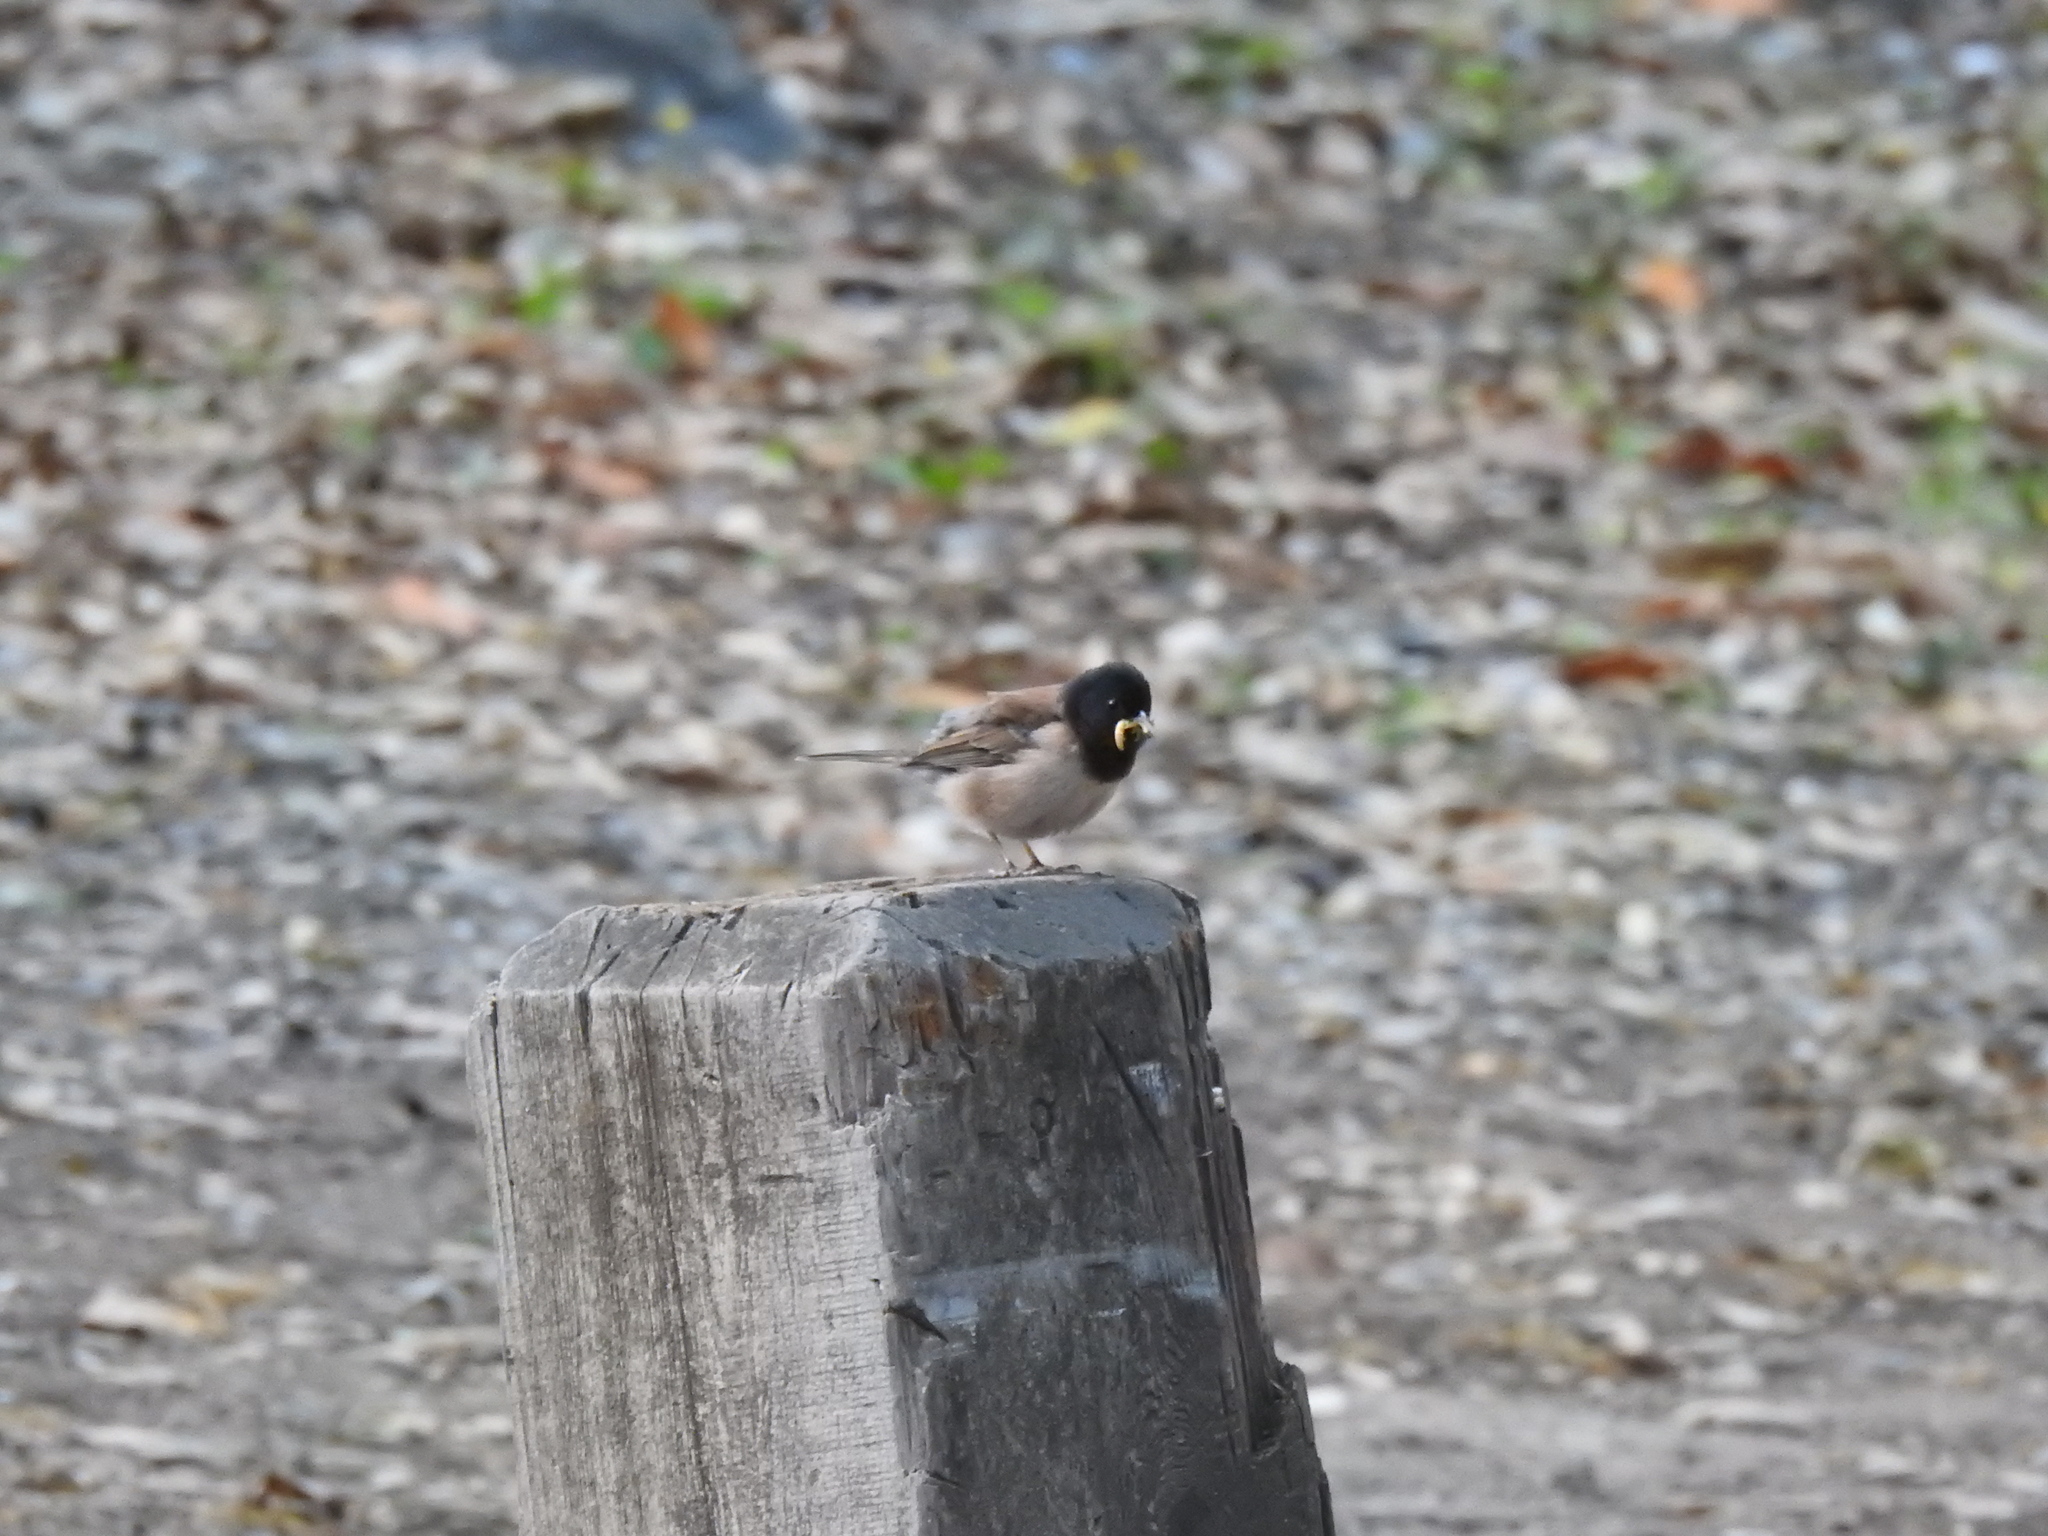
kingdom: Animalia
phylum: Chordata
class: Aves
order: Passeriformes
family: Passerellidae
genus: Junco
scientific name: Junco hyemalis
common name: Dark-eyed junco
